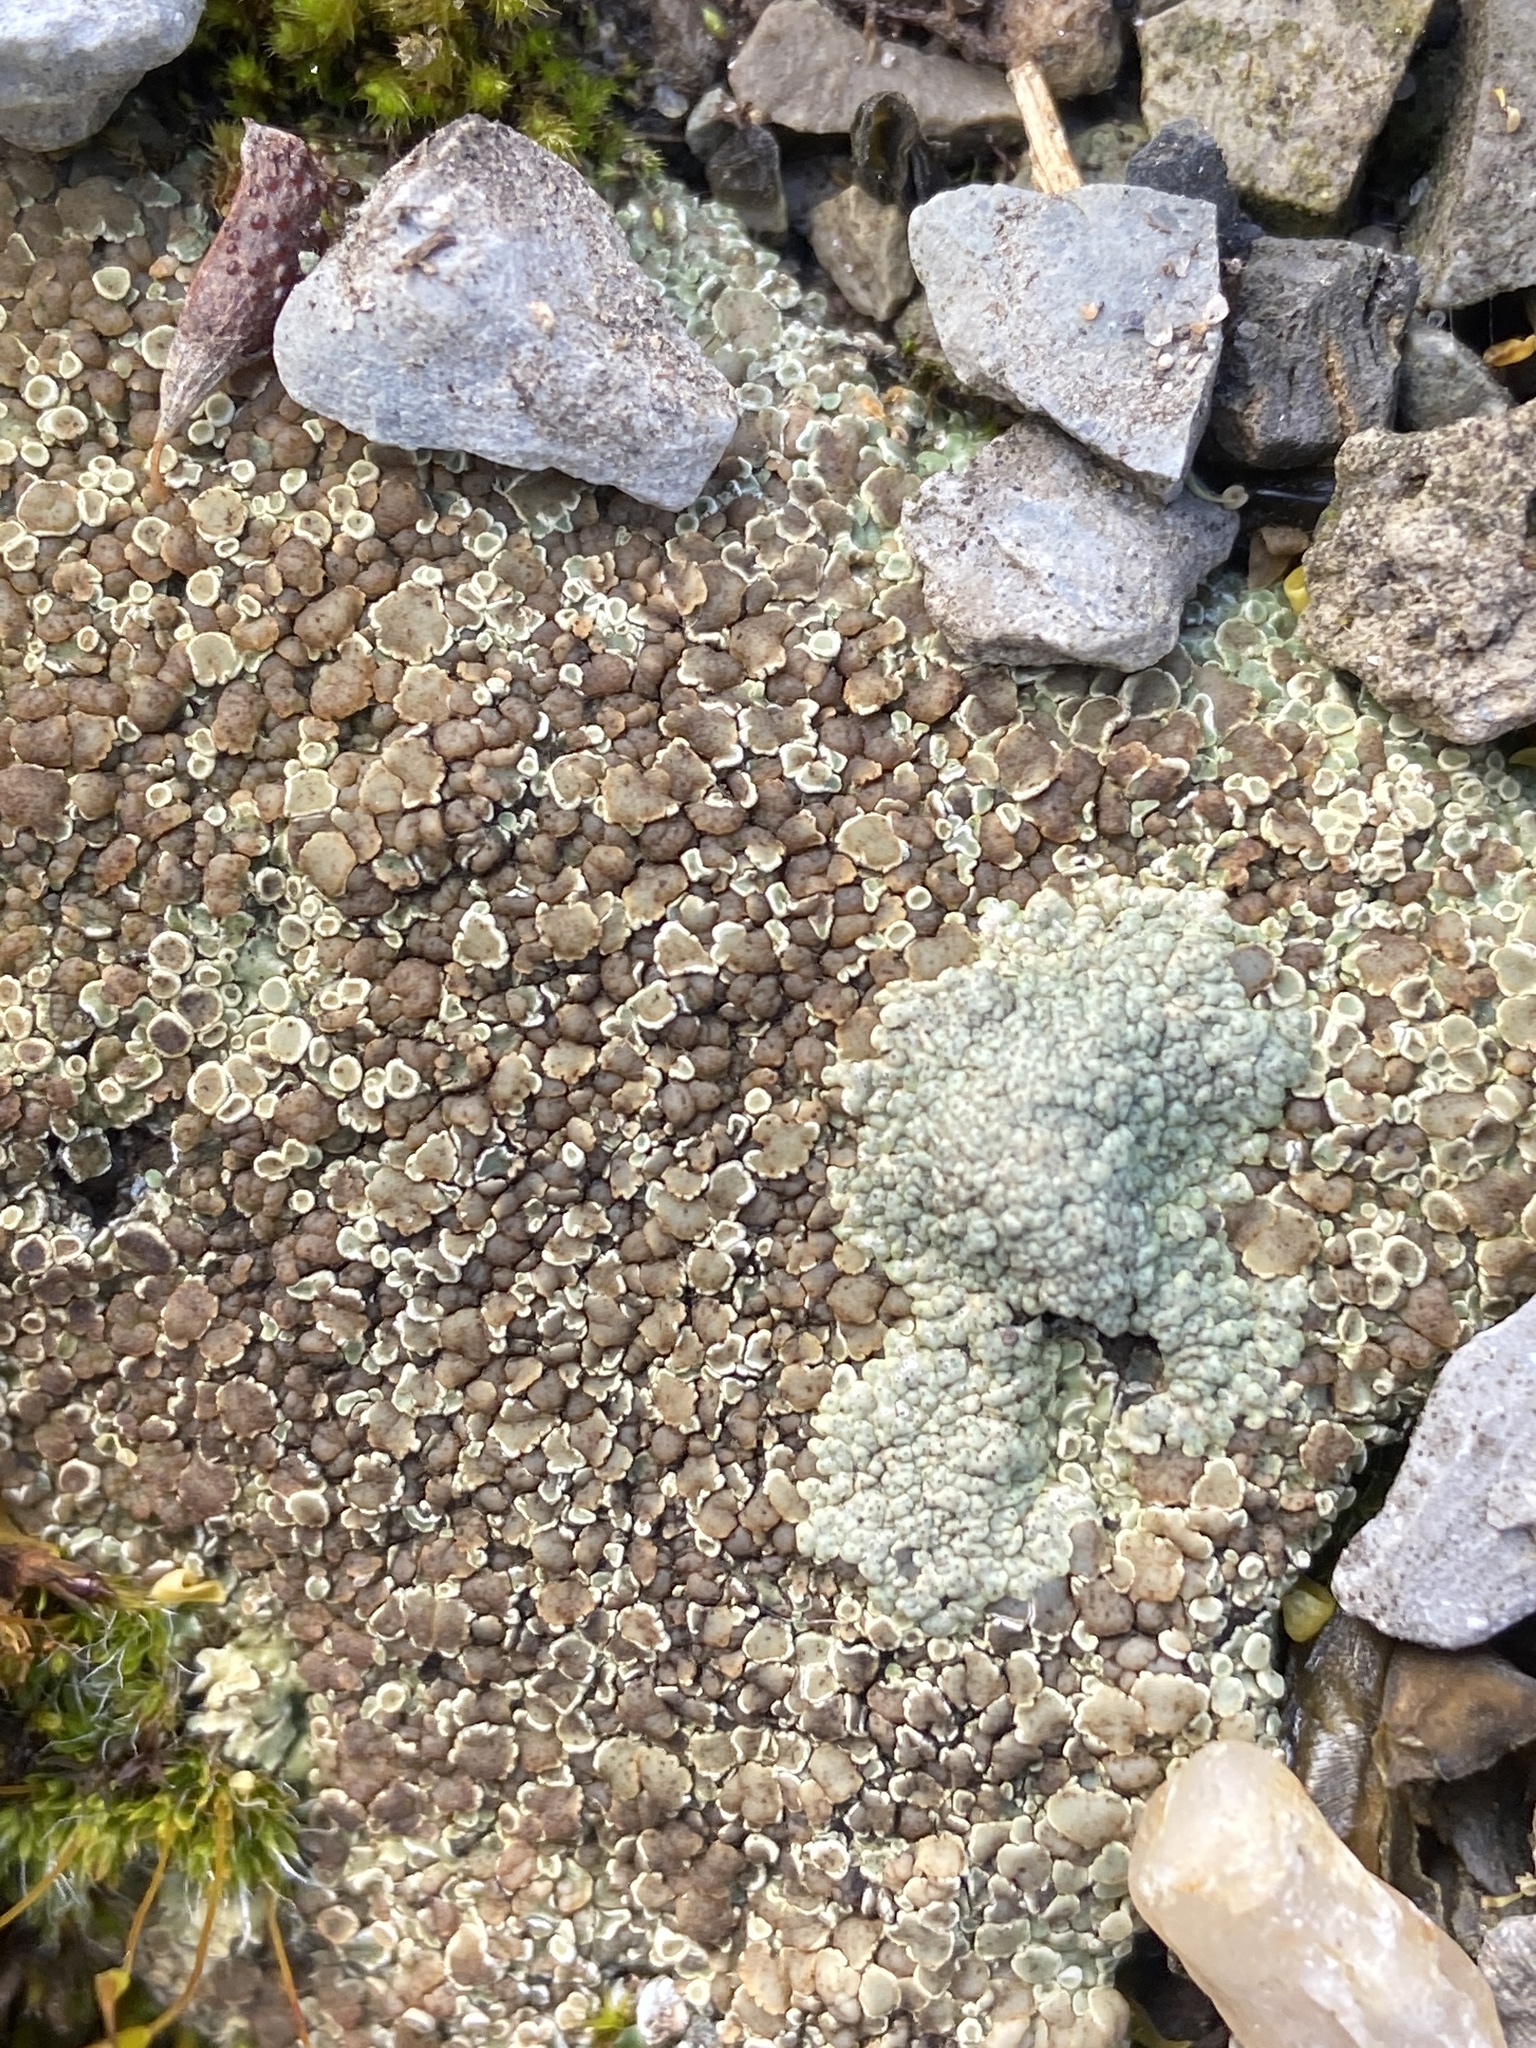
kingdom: Fungi
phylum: Ascomycota
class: Lecanoromycetes
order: Lecanorales
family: Lecanoraceae
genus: Protoparmeliopsis
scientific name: Protoparmeliopsis muralis
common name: Stonewall rim lichen
